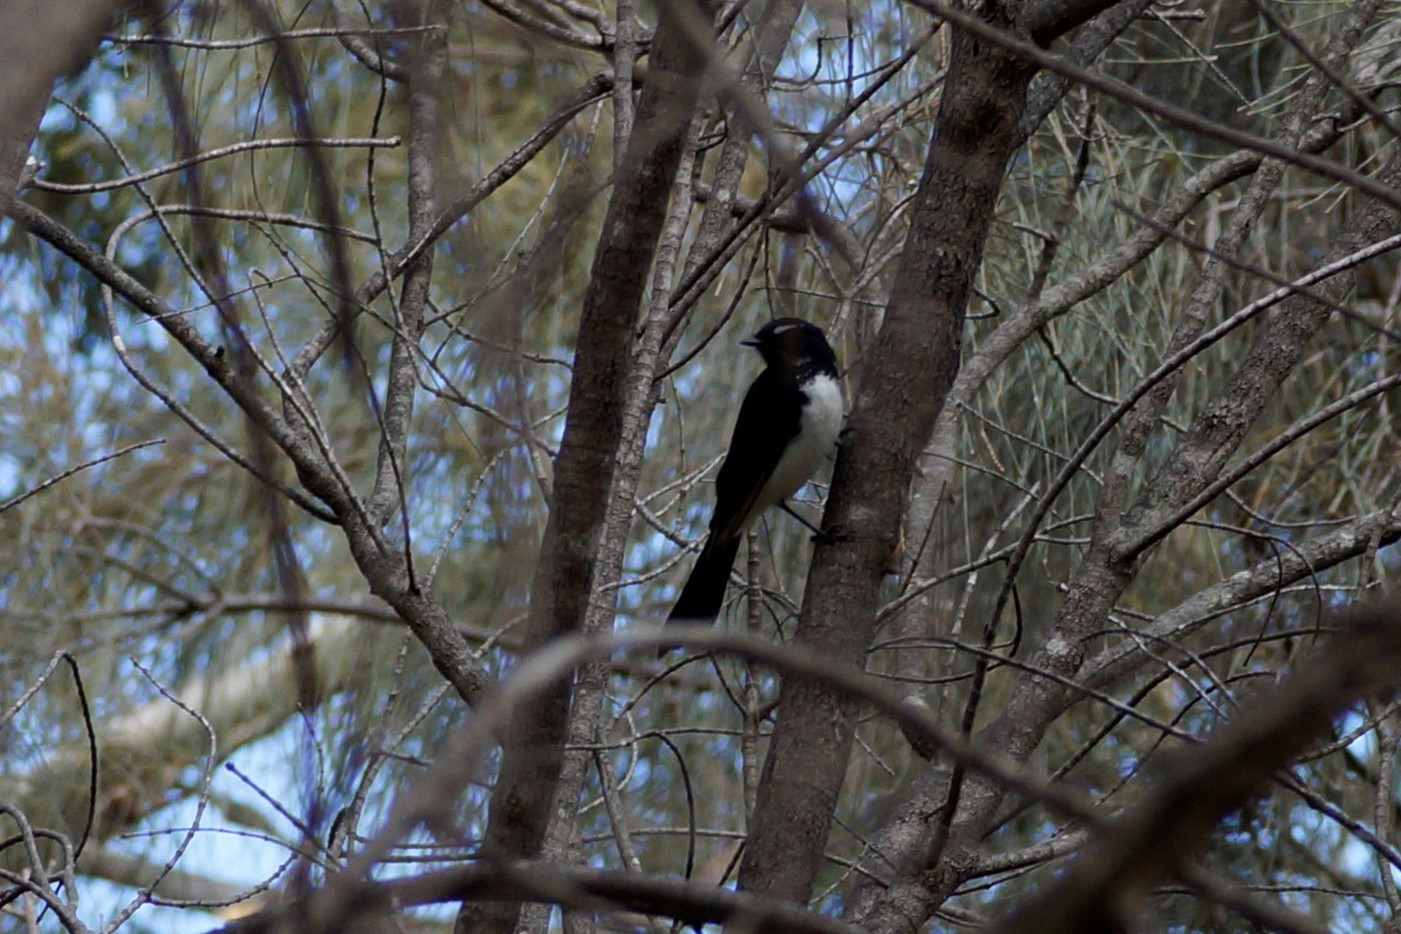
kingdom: Animalia
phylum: Chordata
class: Aves
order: Passeriformes
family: Rhipiduridae
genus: Rhipidura
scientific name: Rhipidura leucophrys
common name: Willie wagtail
